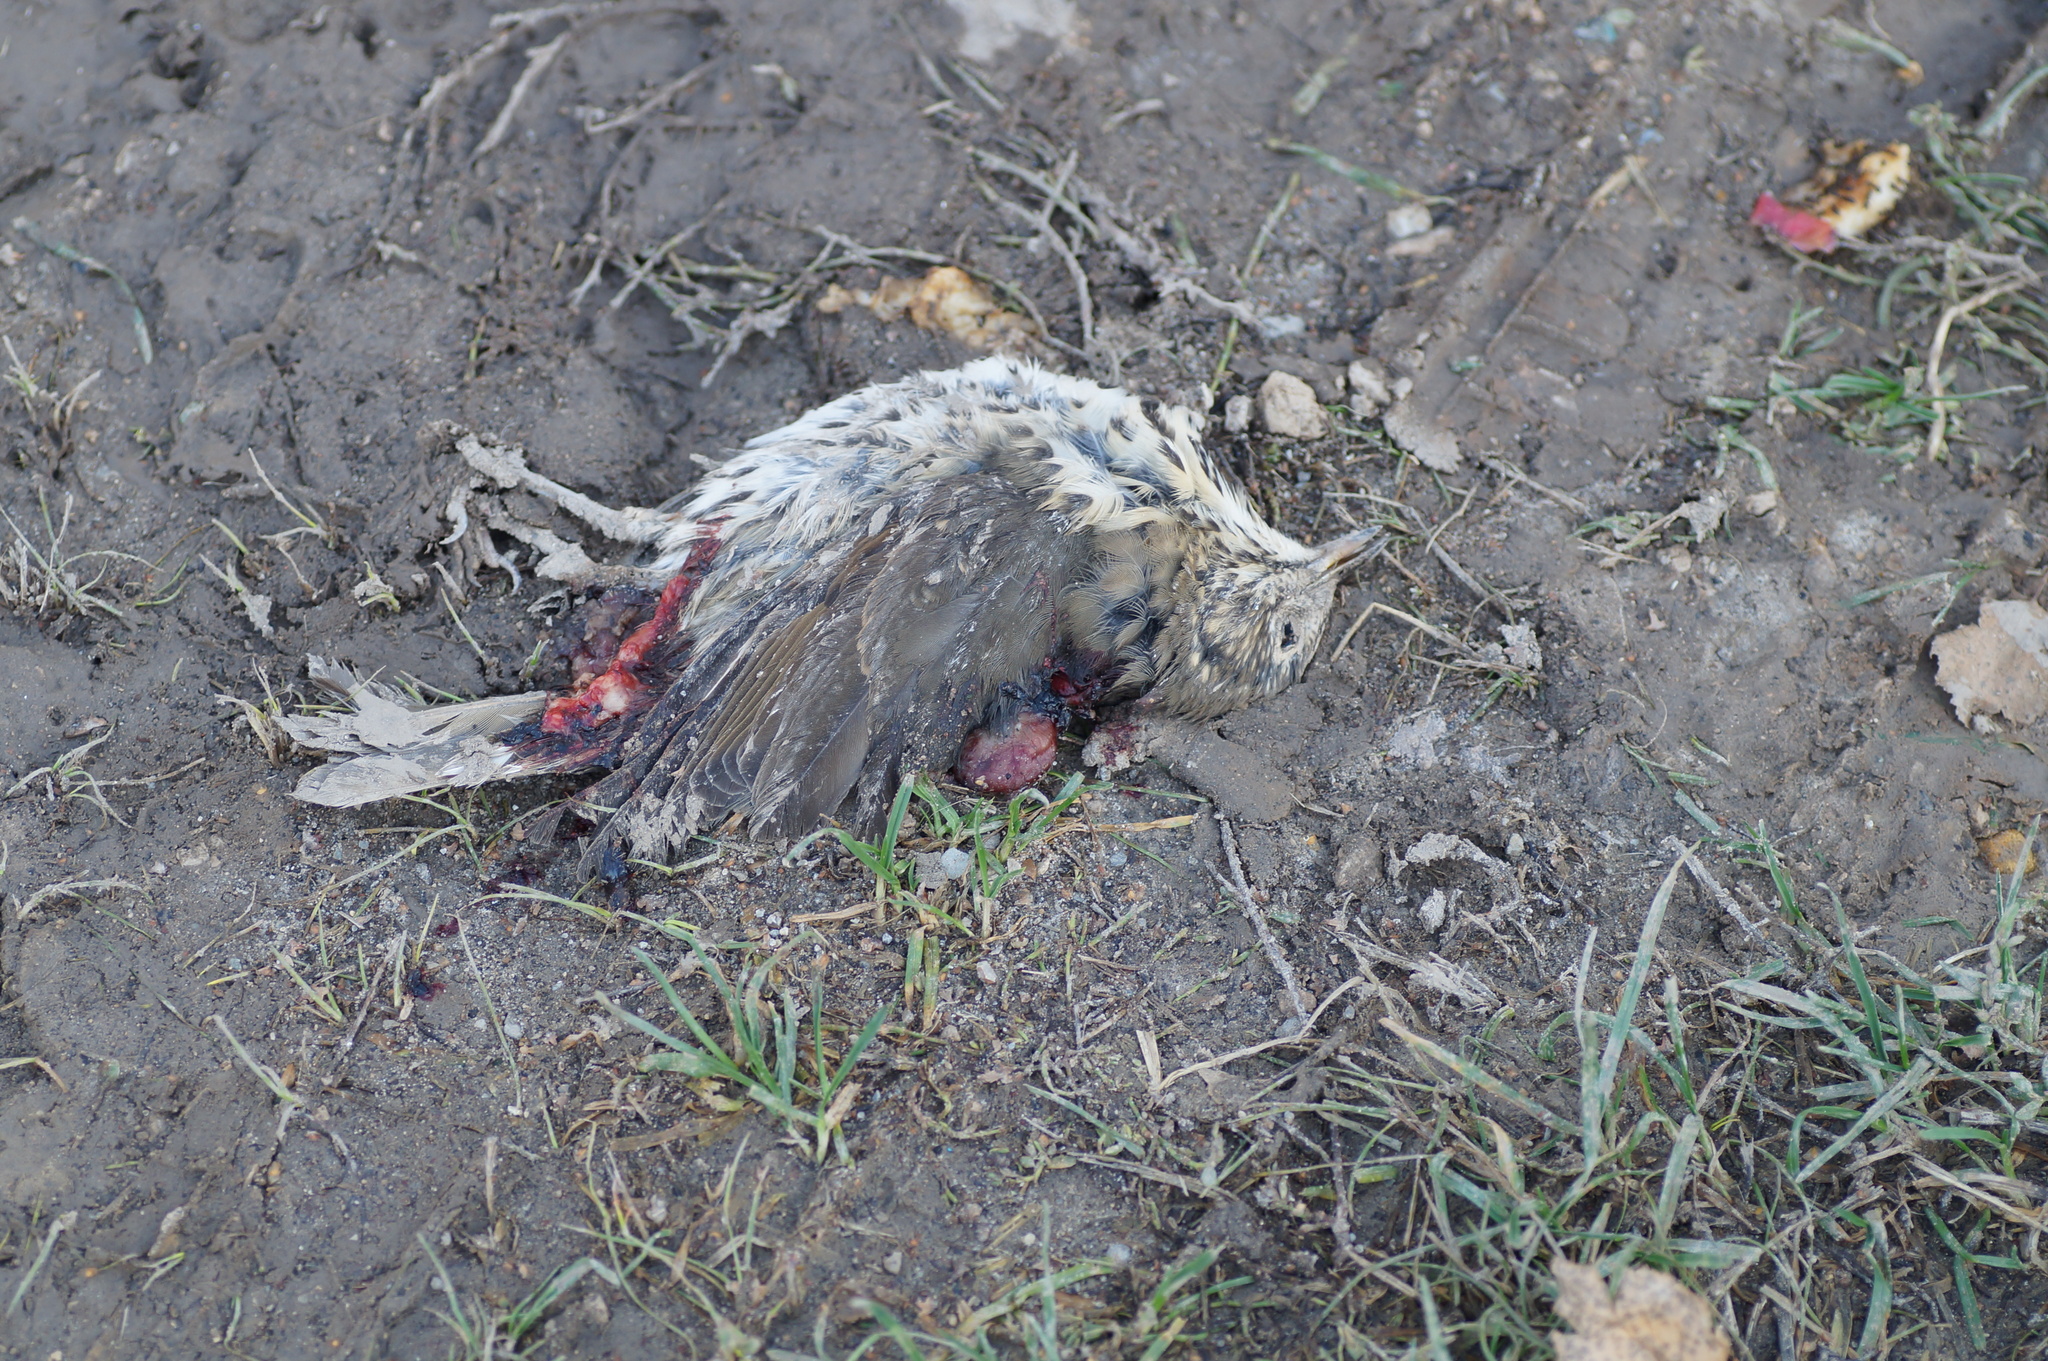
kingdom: Animalia
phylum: Chordata
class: Aves
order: Passeriformes
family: Turdidae
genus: Turdus
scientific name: Turdus philomelos
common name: Song thrush
